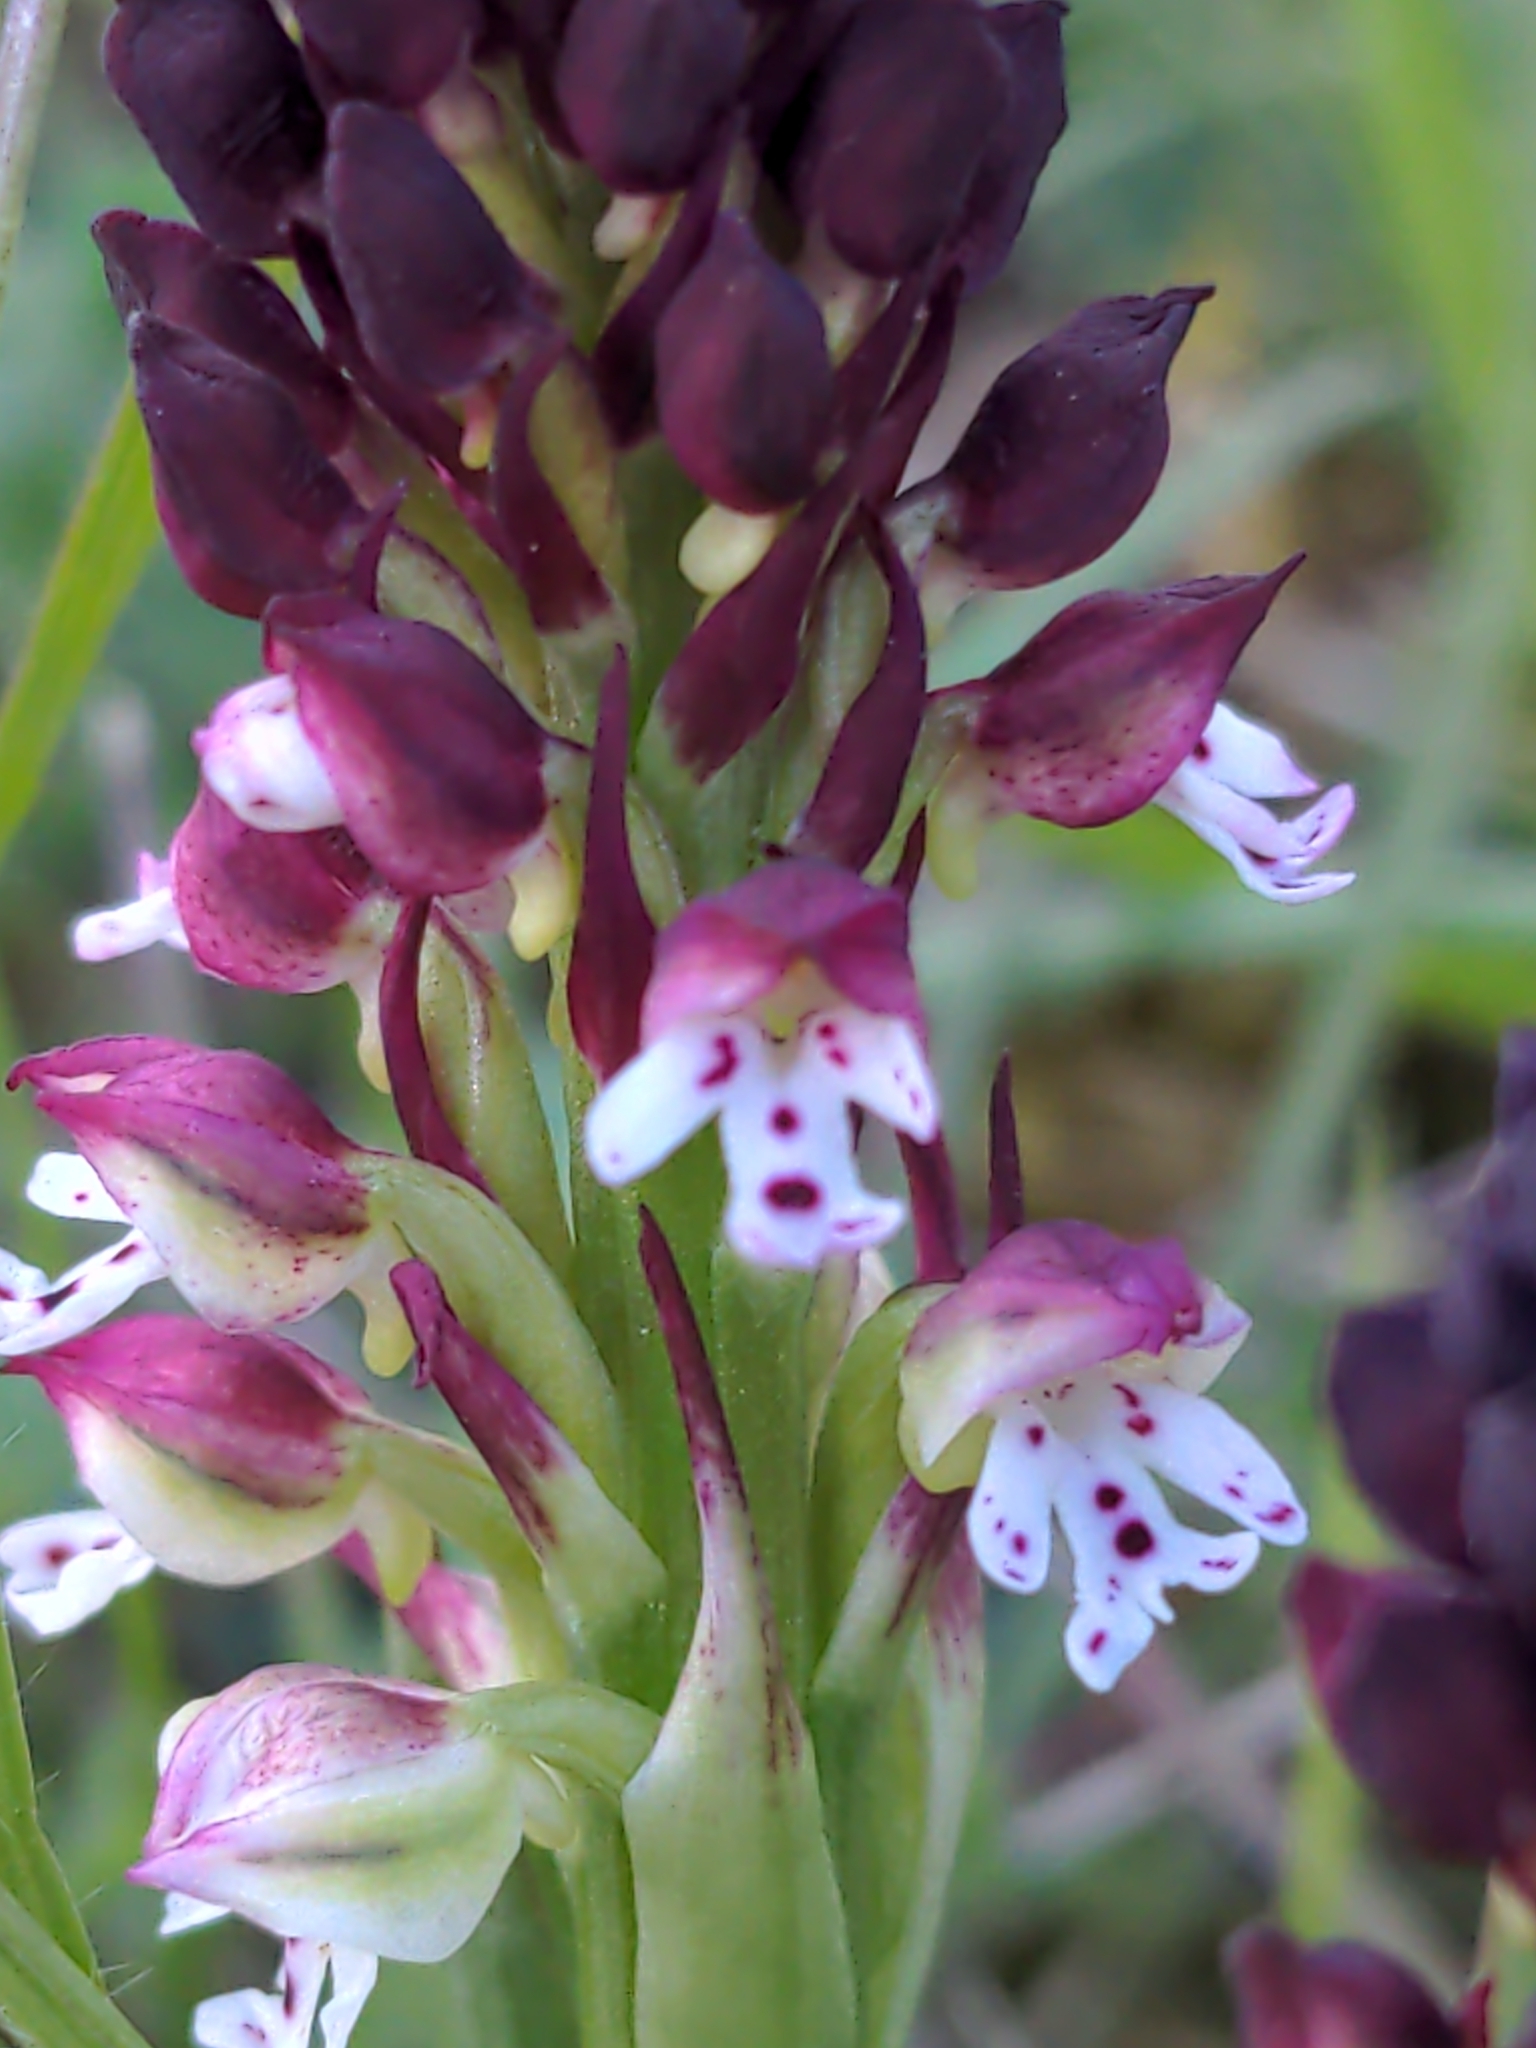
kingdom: Plantae
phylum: Tracheophyta
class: Liliopsida
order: Asparagales
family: Orchidaceae
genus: Neotinea
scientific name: Neotinea ustulata
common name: Burnt orchid
